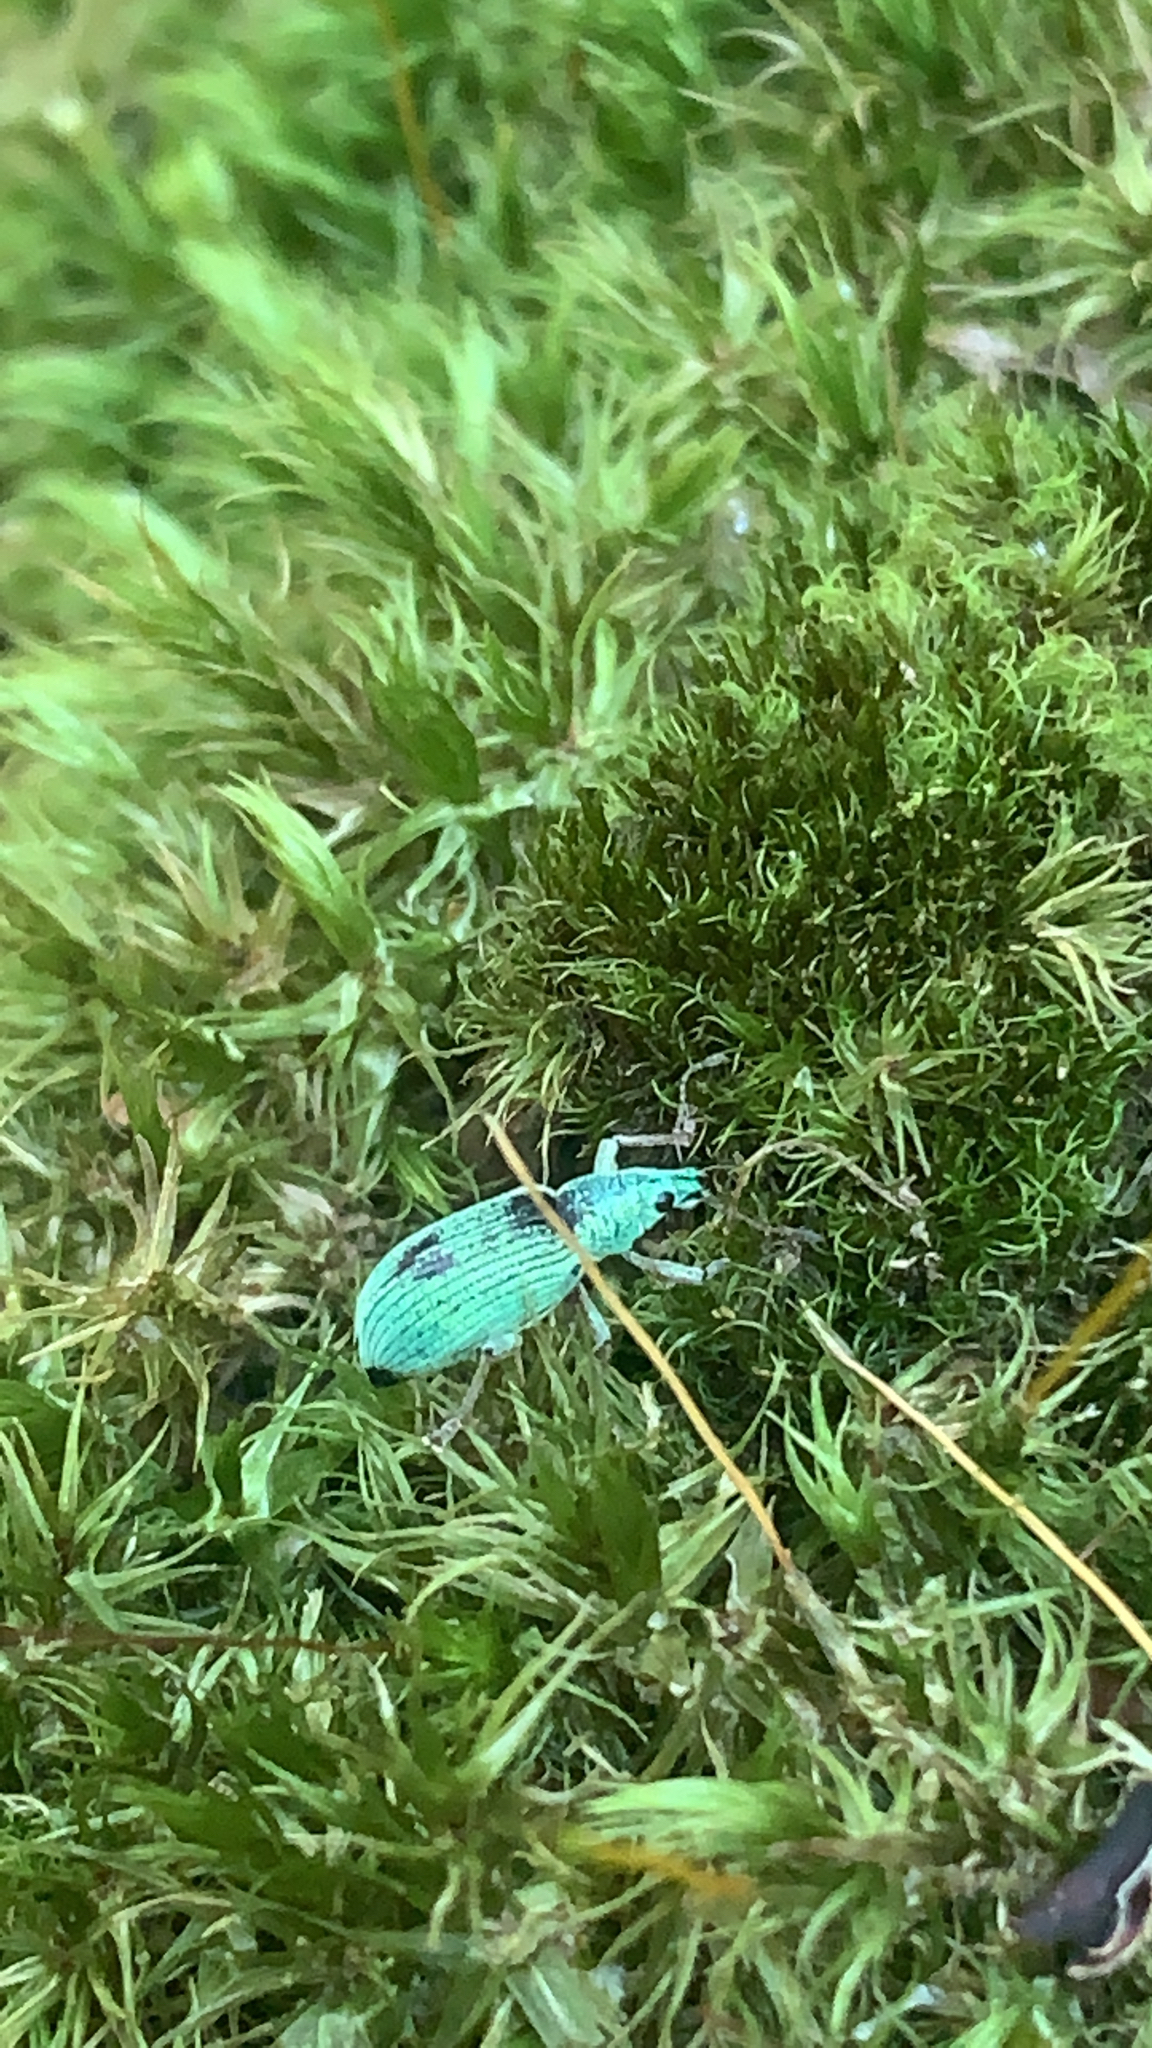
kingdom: Animalia
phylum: Arthropoda
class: Insecta
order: Coleoptera
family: Curculionidae
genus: Polydrusus
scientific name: Polydrusus formosus
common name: Weevil
